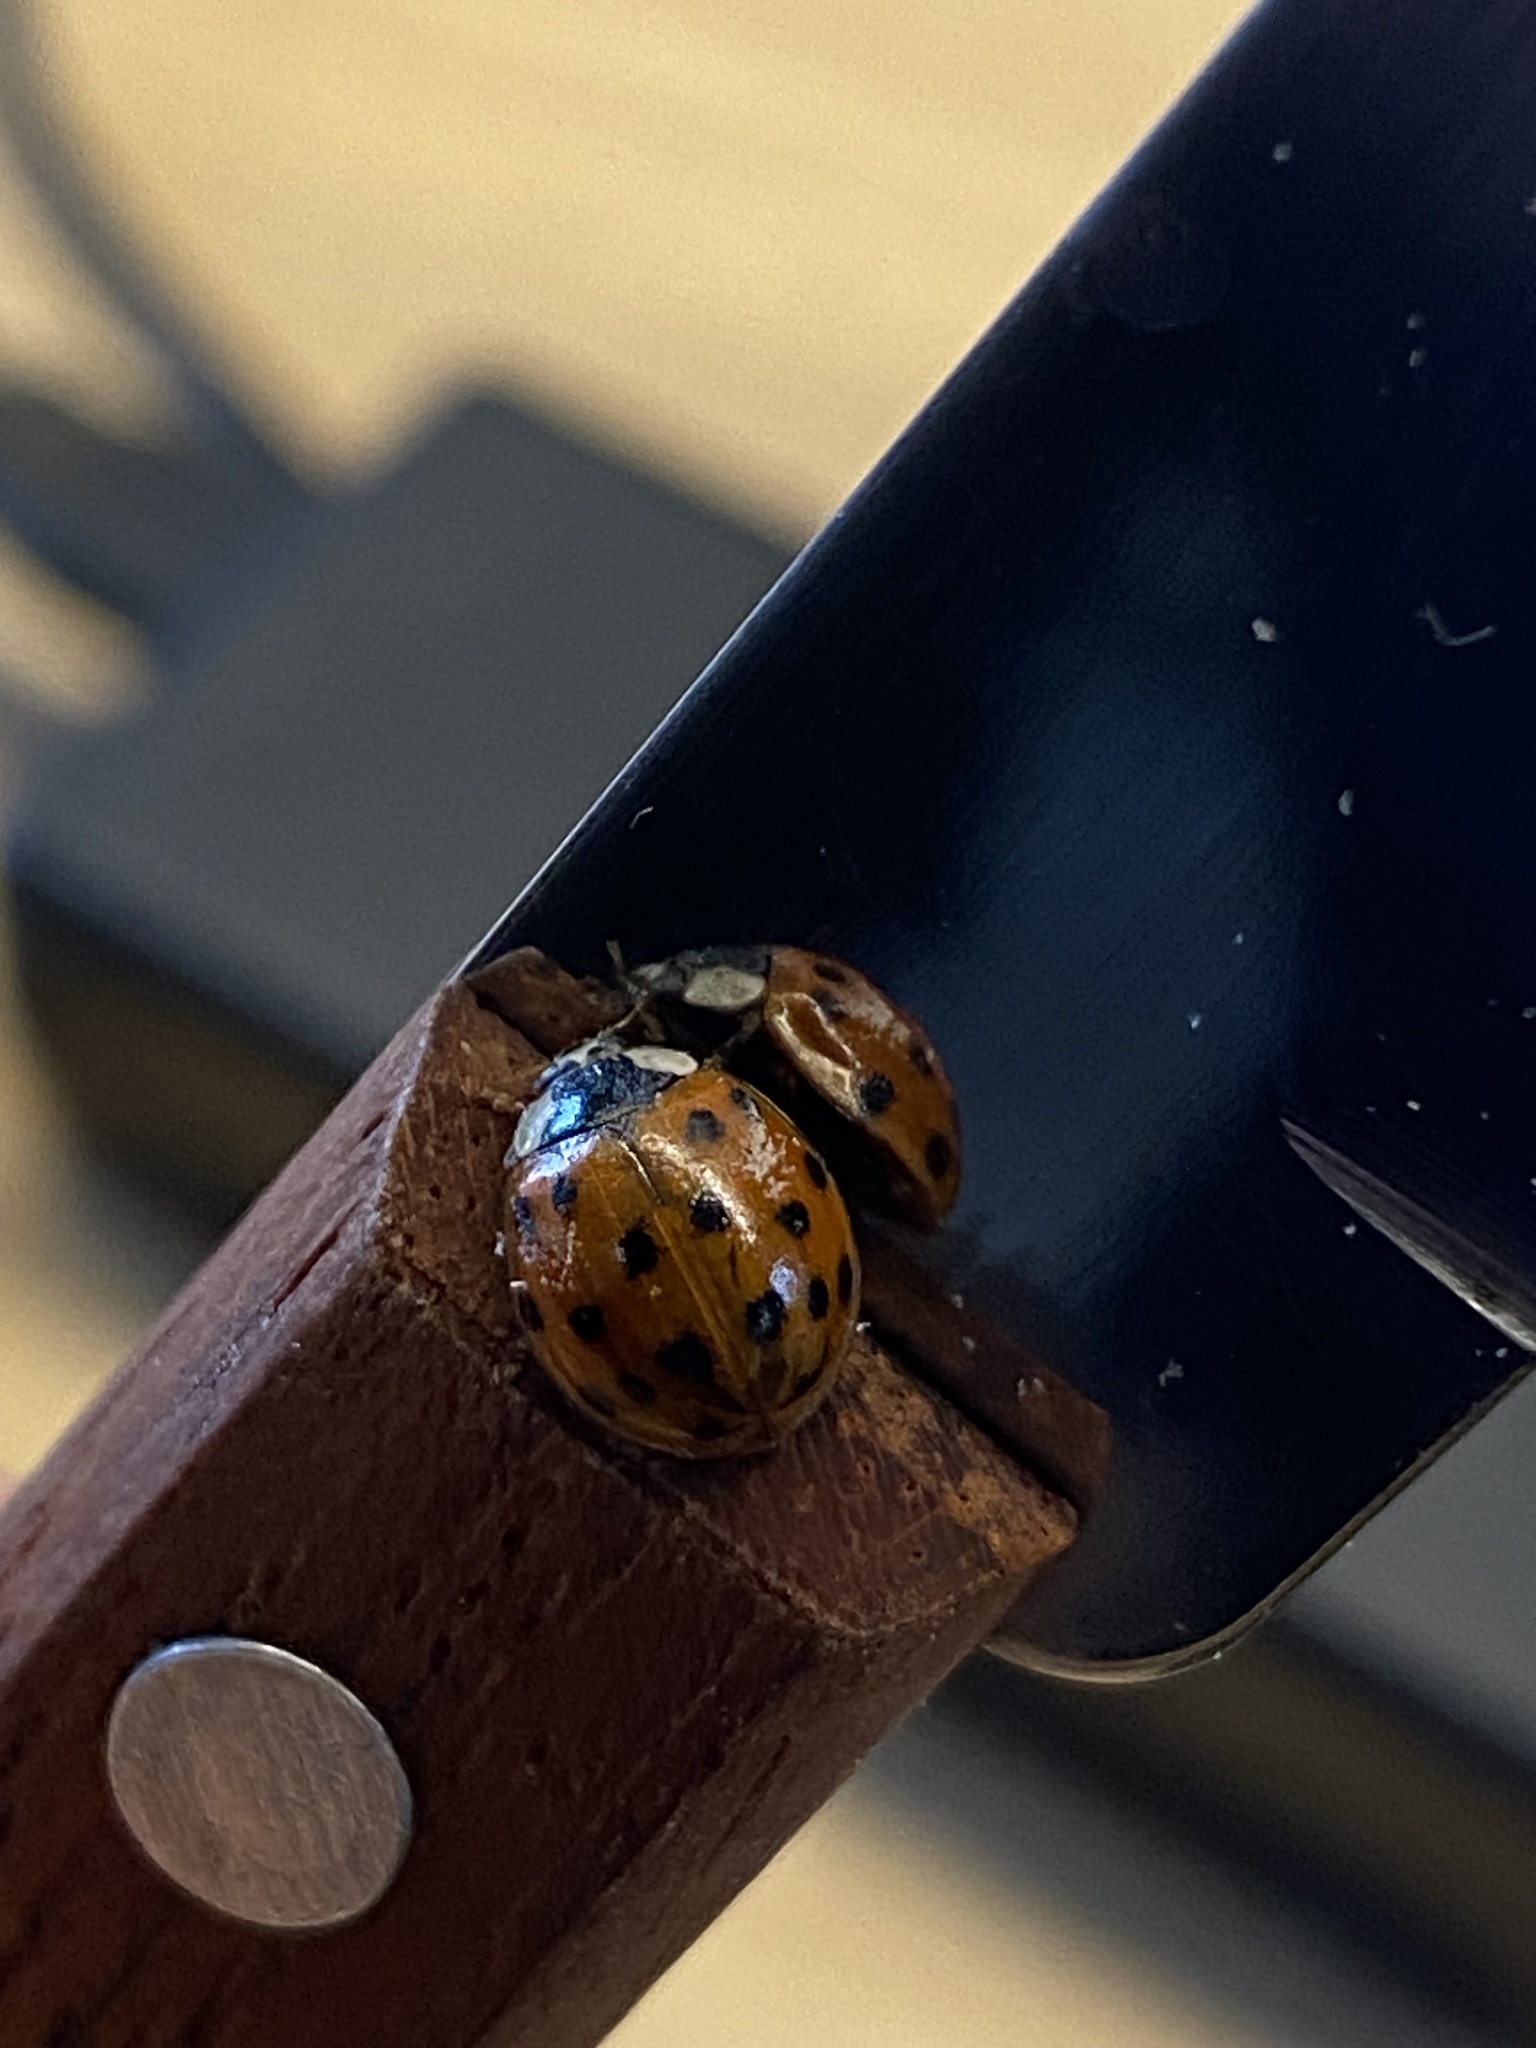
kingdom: Animalia
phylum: Arthropoda
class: Insecta
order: Coleoptera
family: Coccinellidae
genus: Harmonia
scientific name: Harmonia axyridis
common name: Harlequin ladybird
